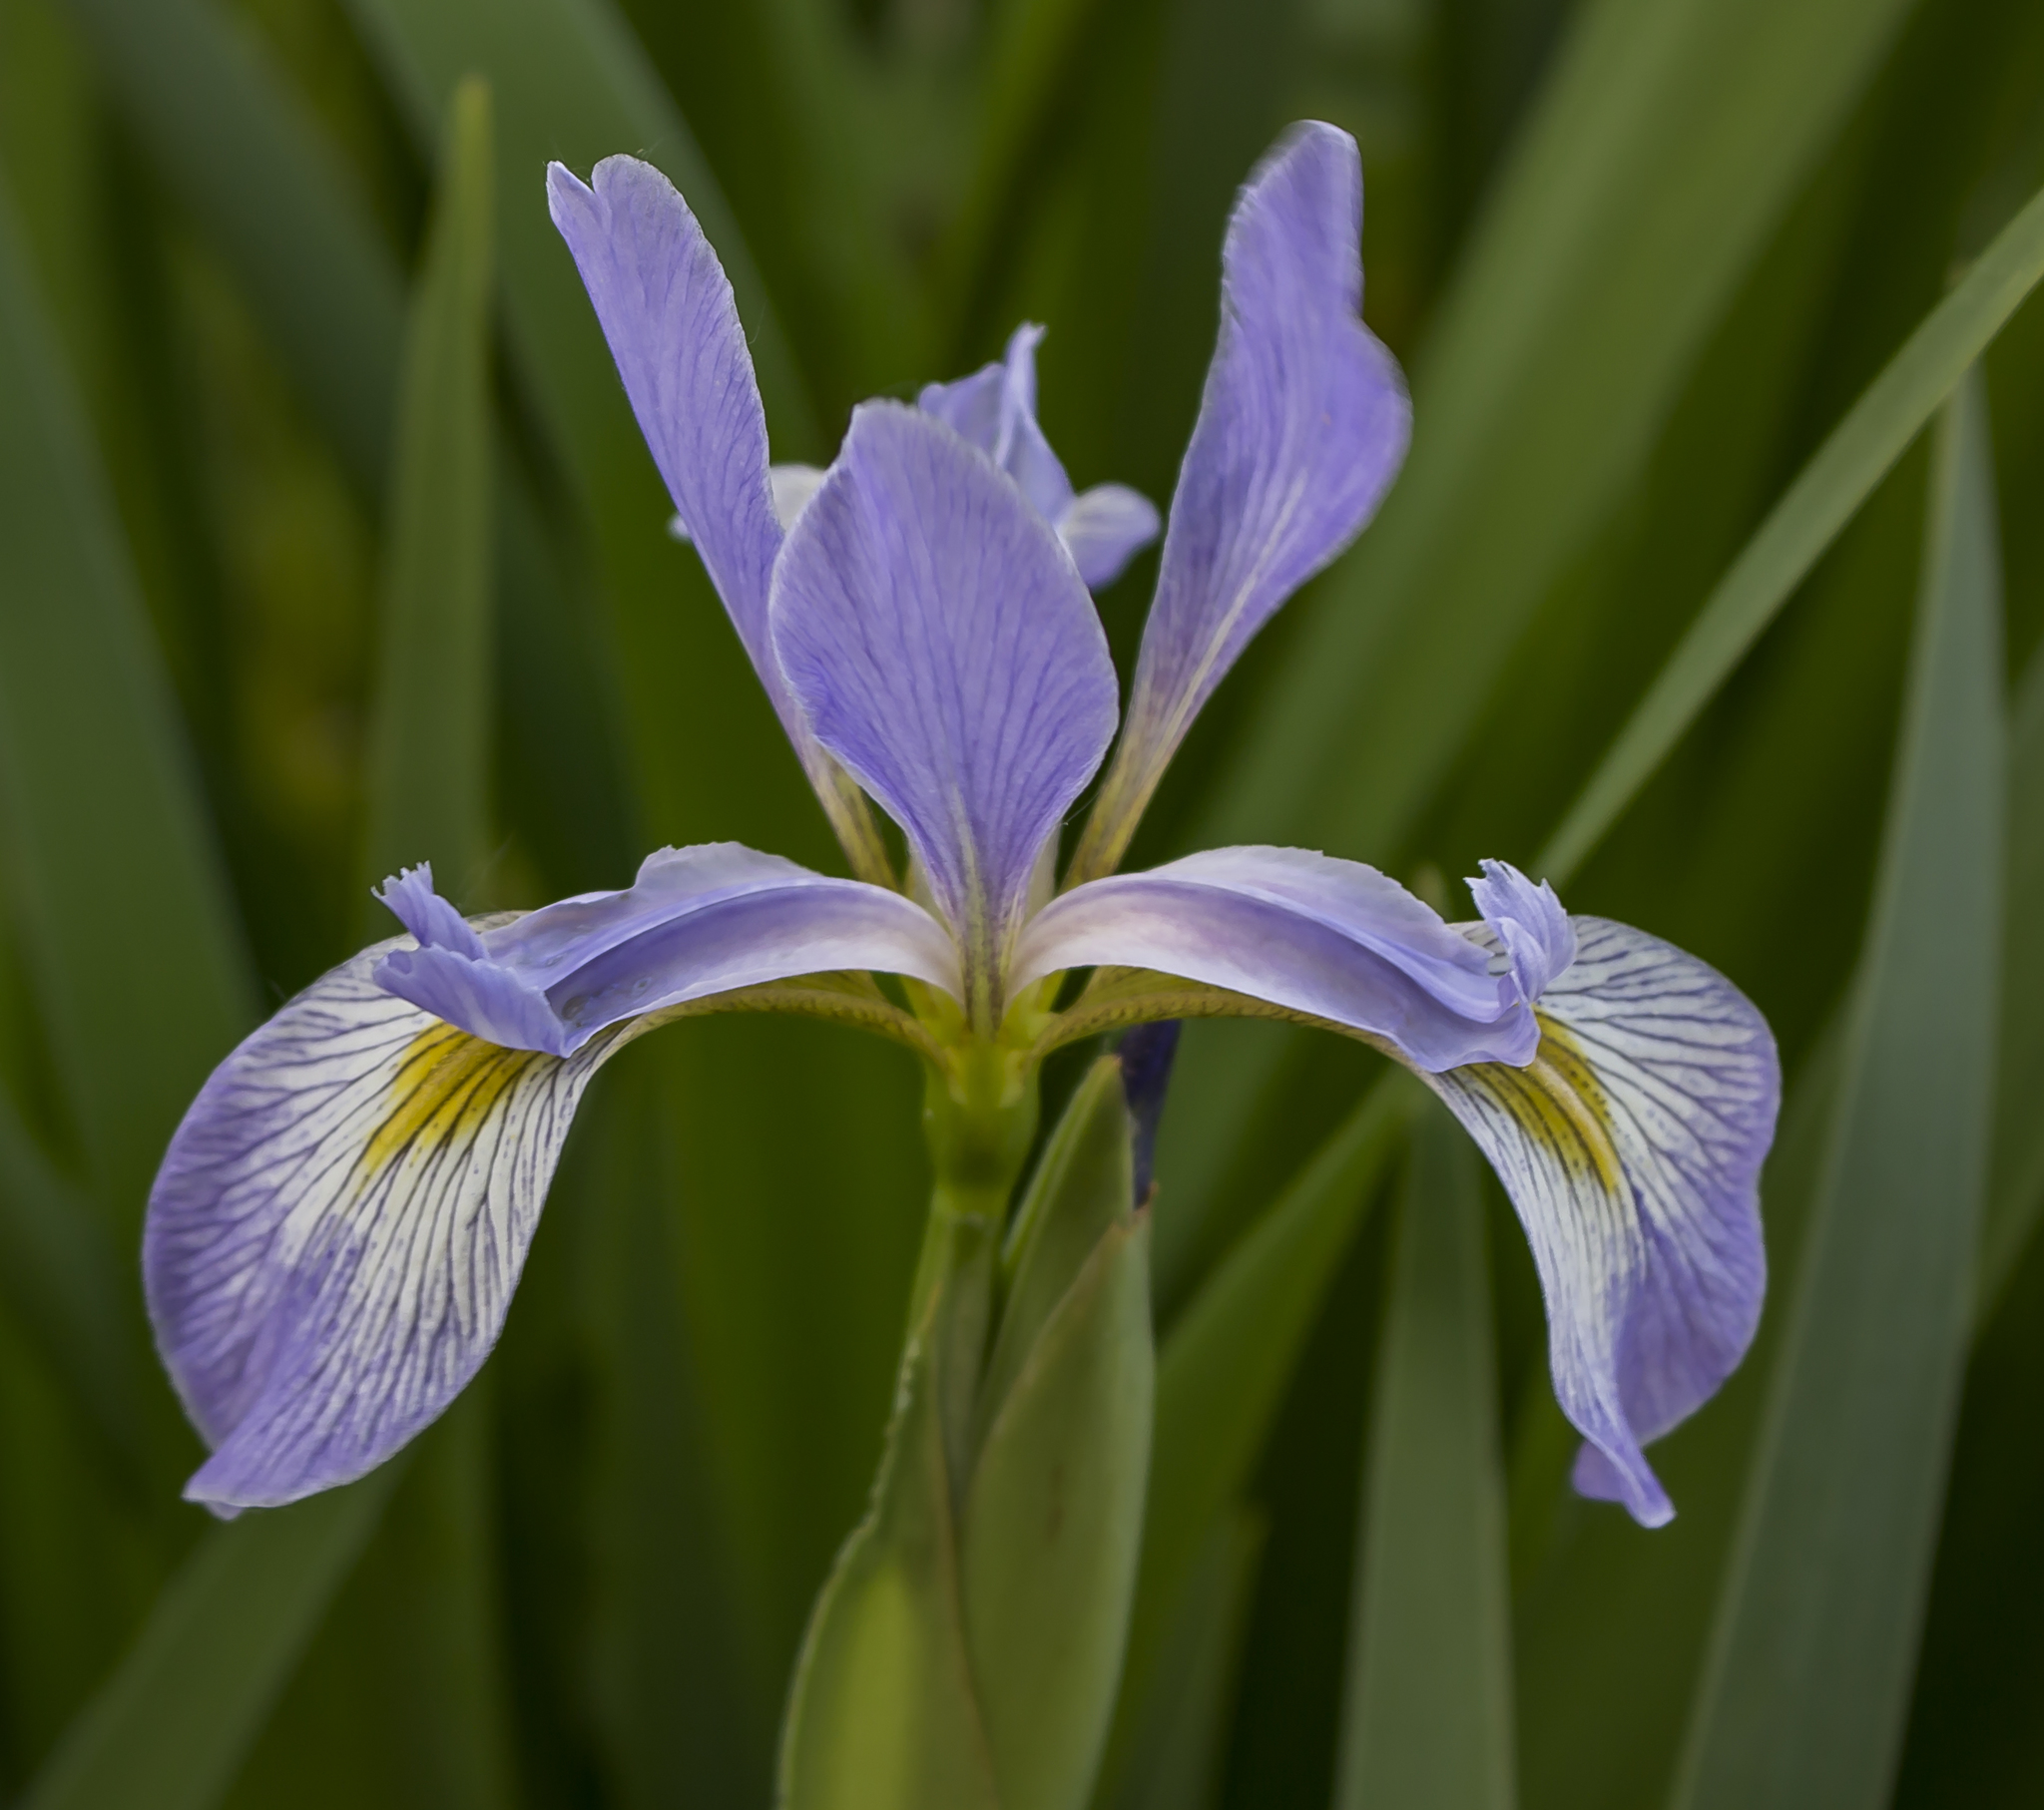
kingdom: Plantae
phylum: Tracheophyta
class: Liliopsida
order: Asparagales
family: Iridaceae
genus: Iris
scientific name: Iris virginica
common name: Southern blue flag
